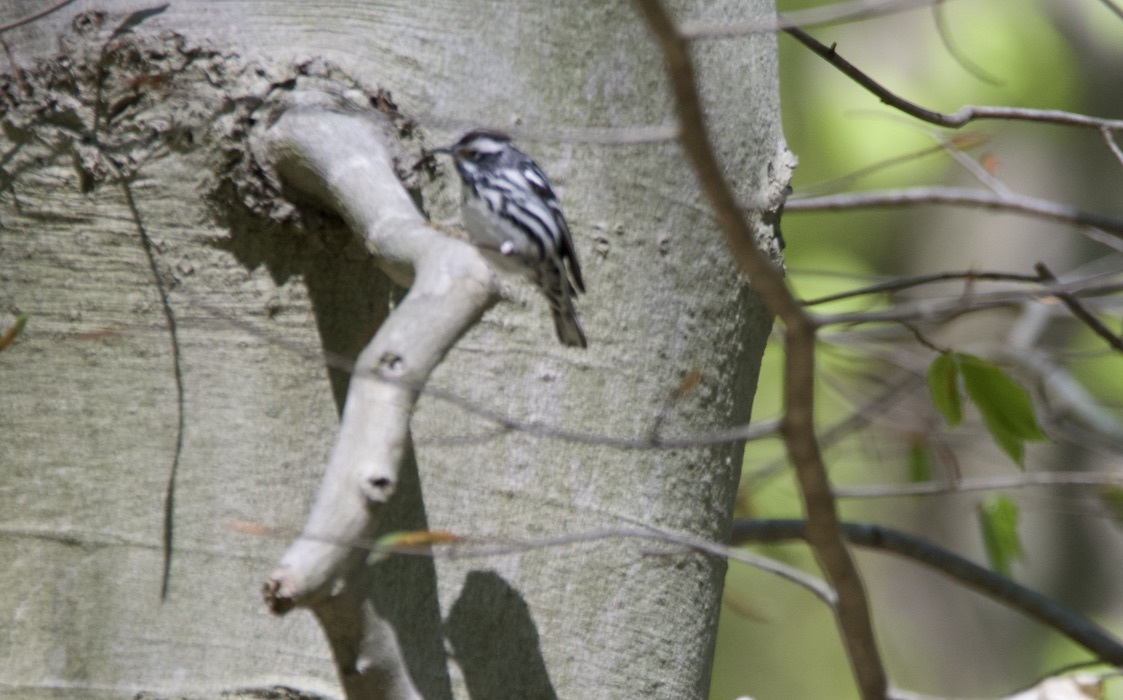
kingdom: Animalia
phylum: Chordata
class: Aves
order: Passeriformes
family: Parulidae
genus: Mniotilta
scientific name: Mniotilta varia
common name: Black-and-white warbler
